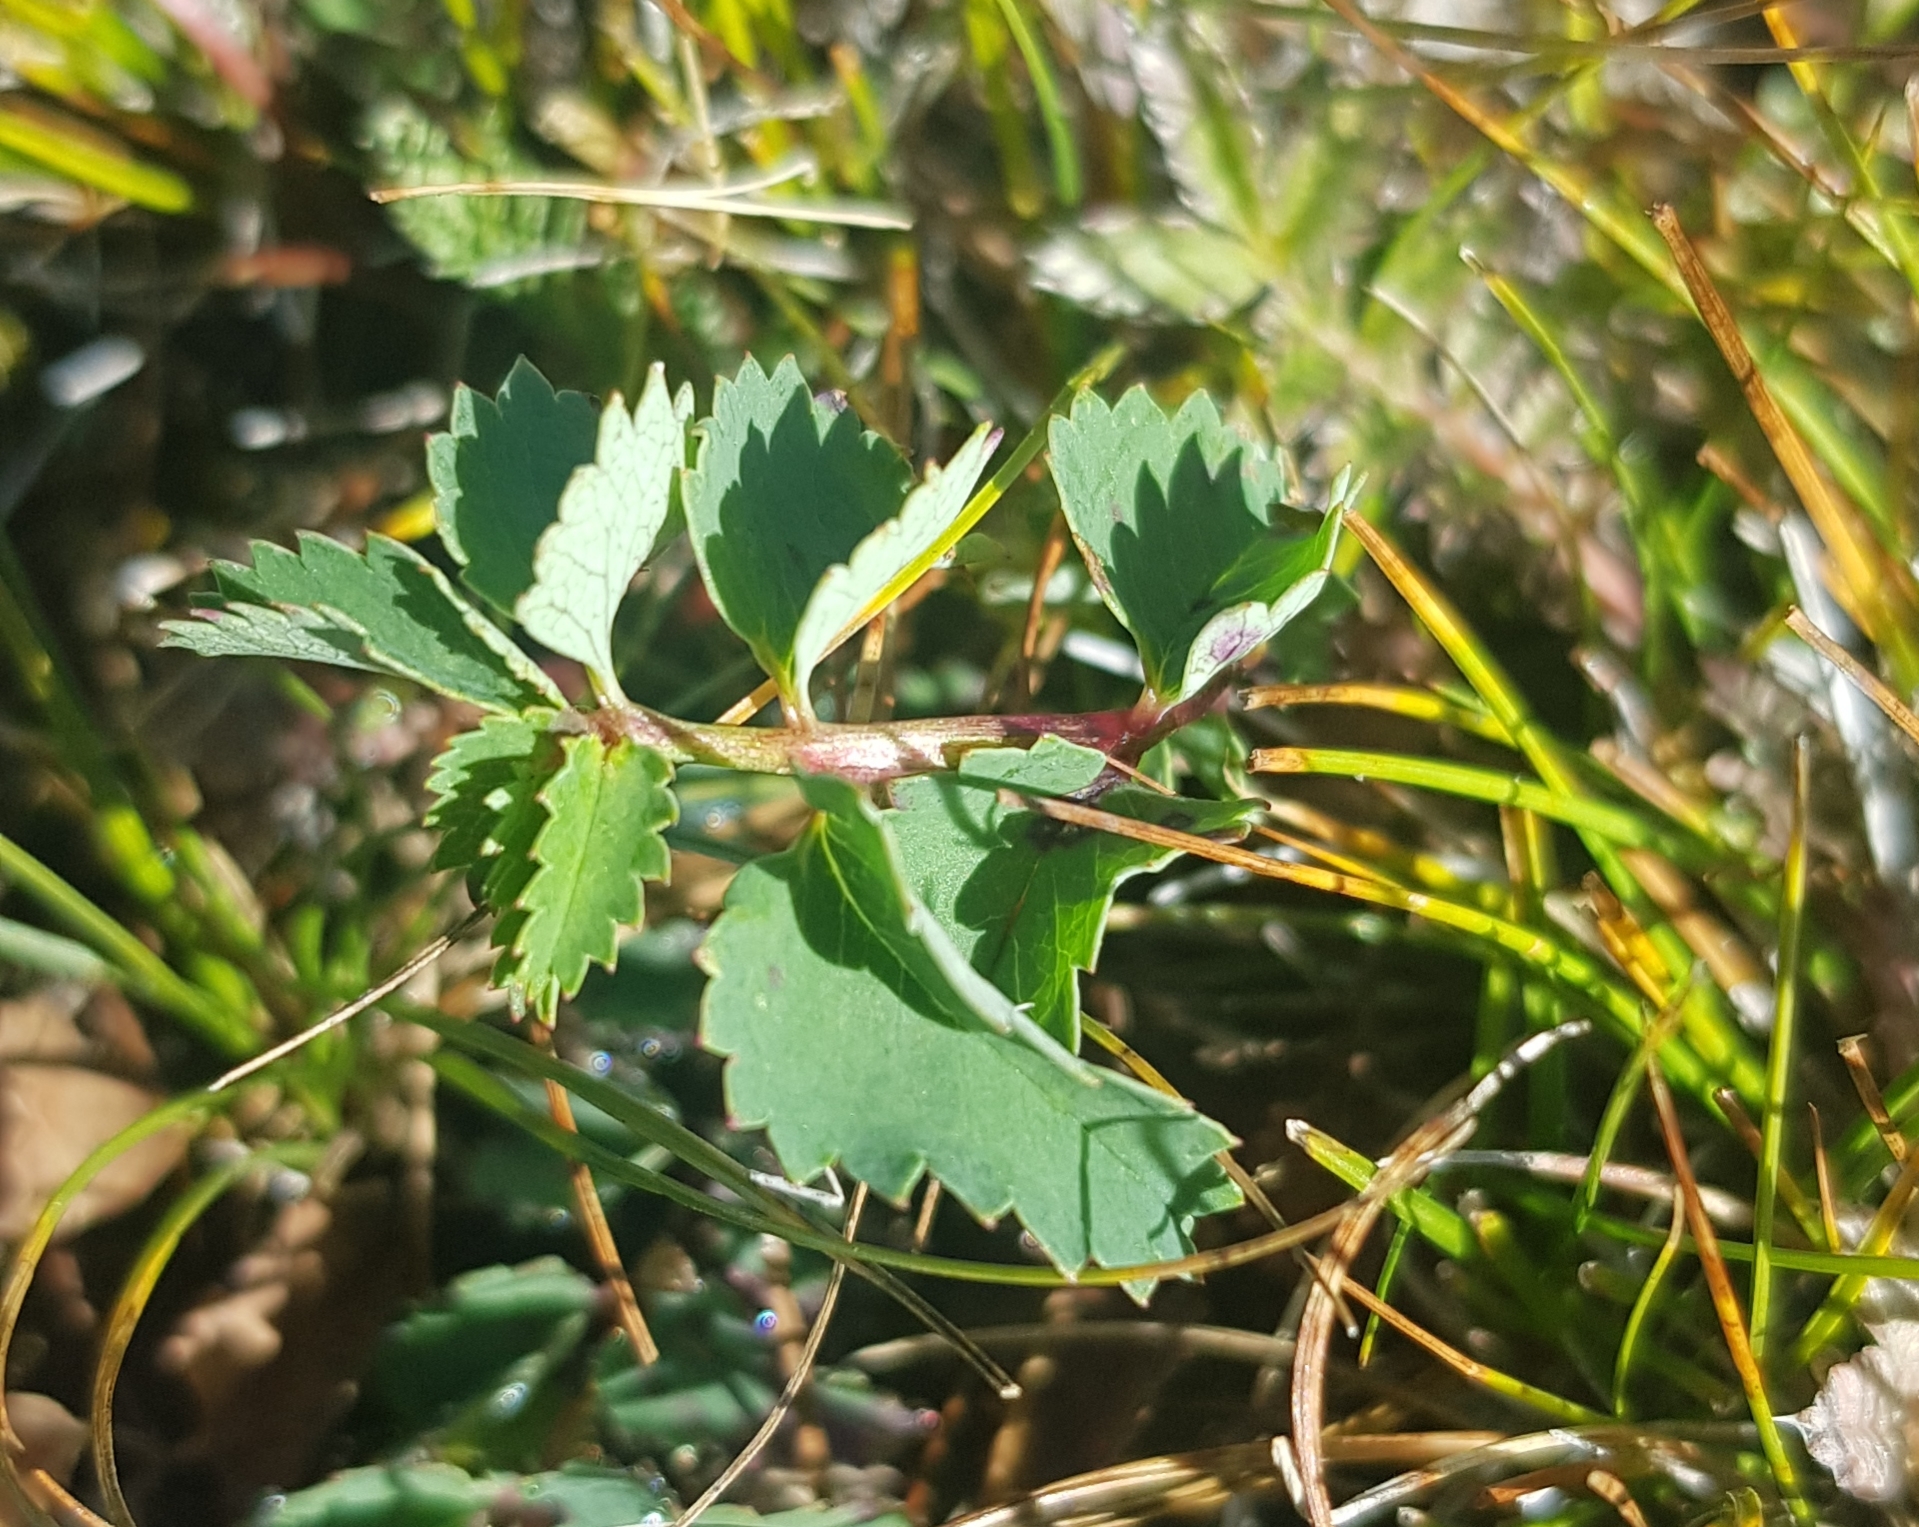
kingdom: Plantae
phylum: Tracheophyta
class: Magnoliopsida
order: Rosales
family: Rosaceae
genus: Sanguisorba
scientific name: Sanguisorba officinalis
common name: Great burnet
